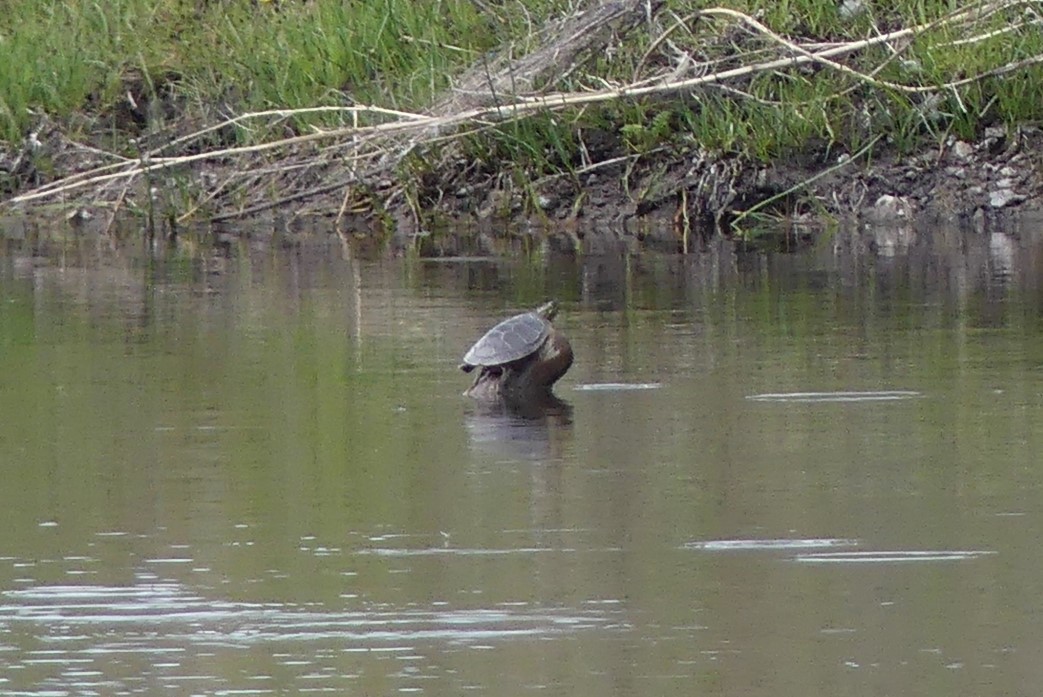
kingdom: Animalia
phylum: Chordata
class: Testudines
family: Emydidae
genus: Chrysemys
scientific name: Chrysemys picta
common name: Painted turtle
